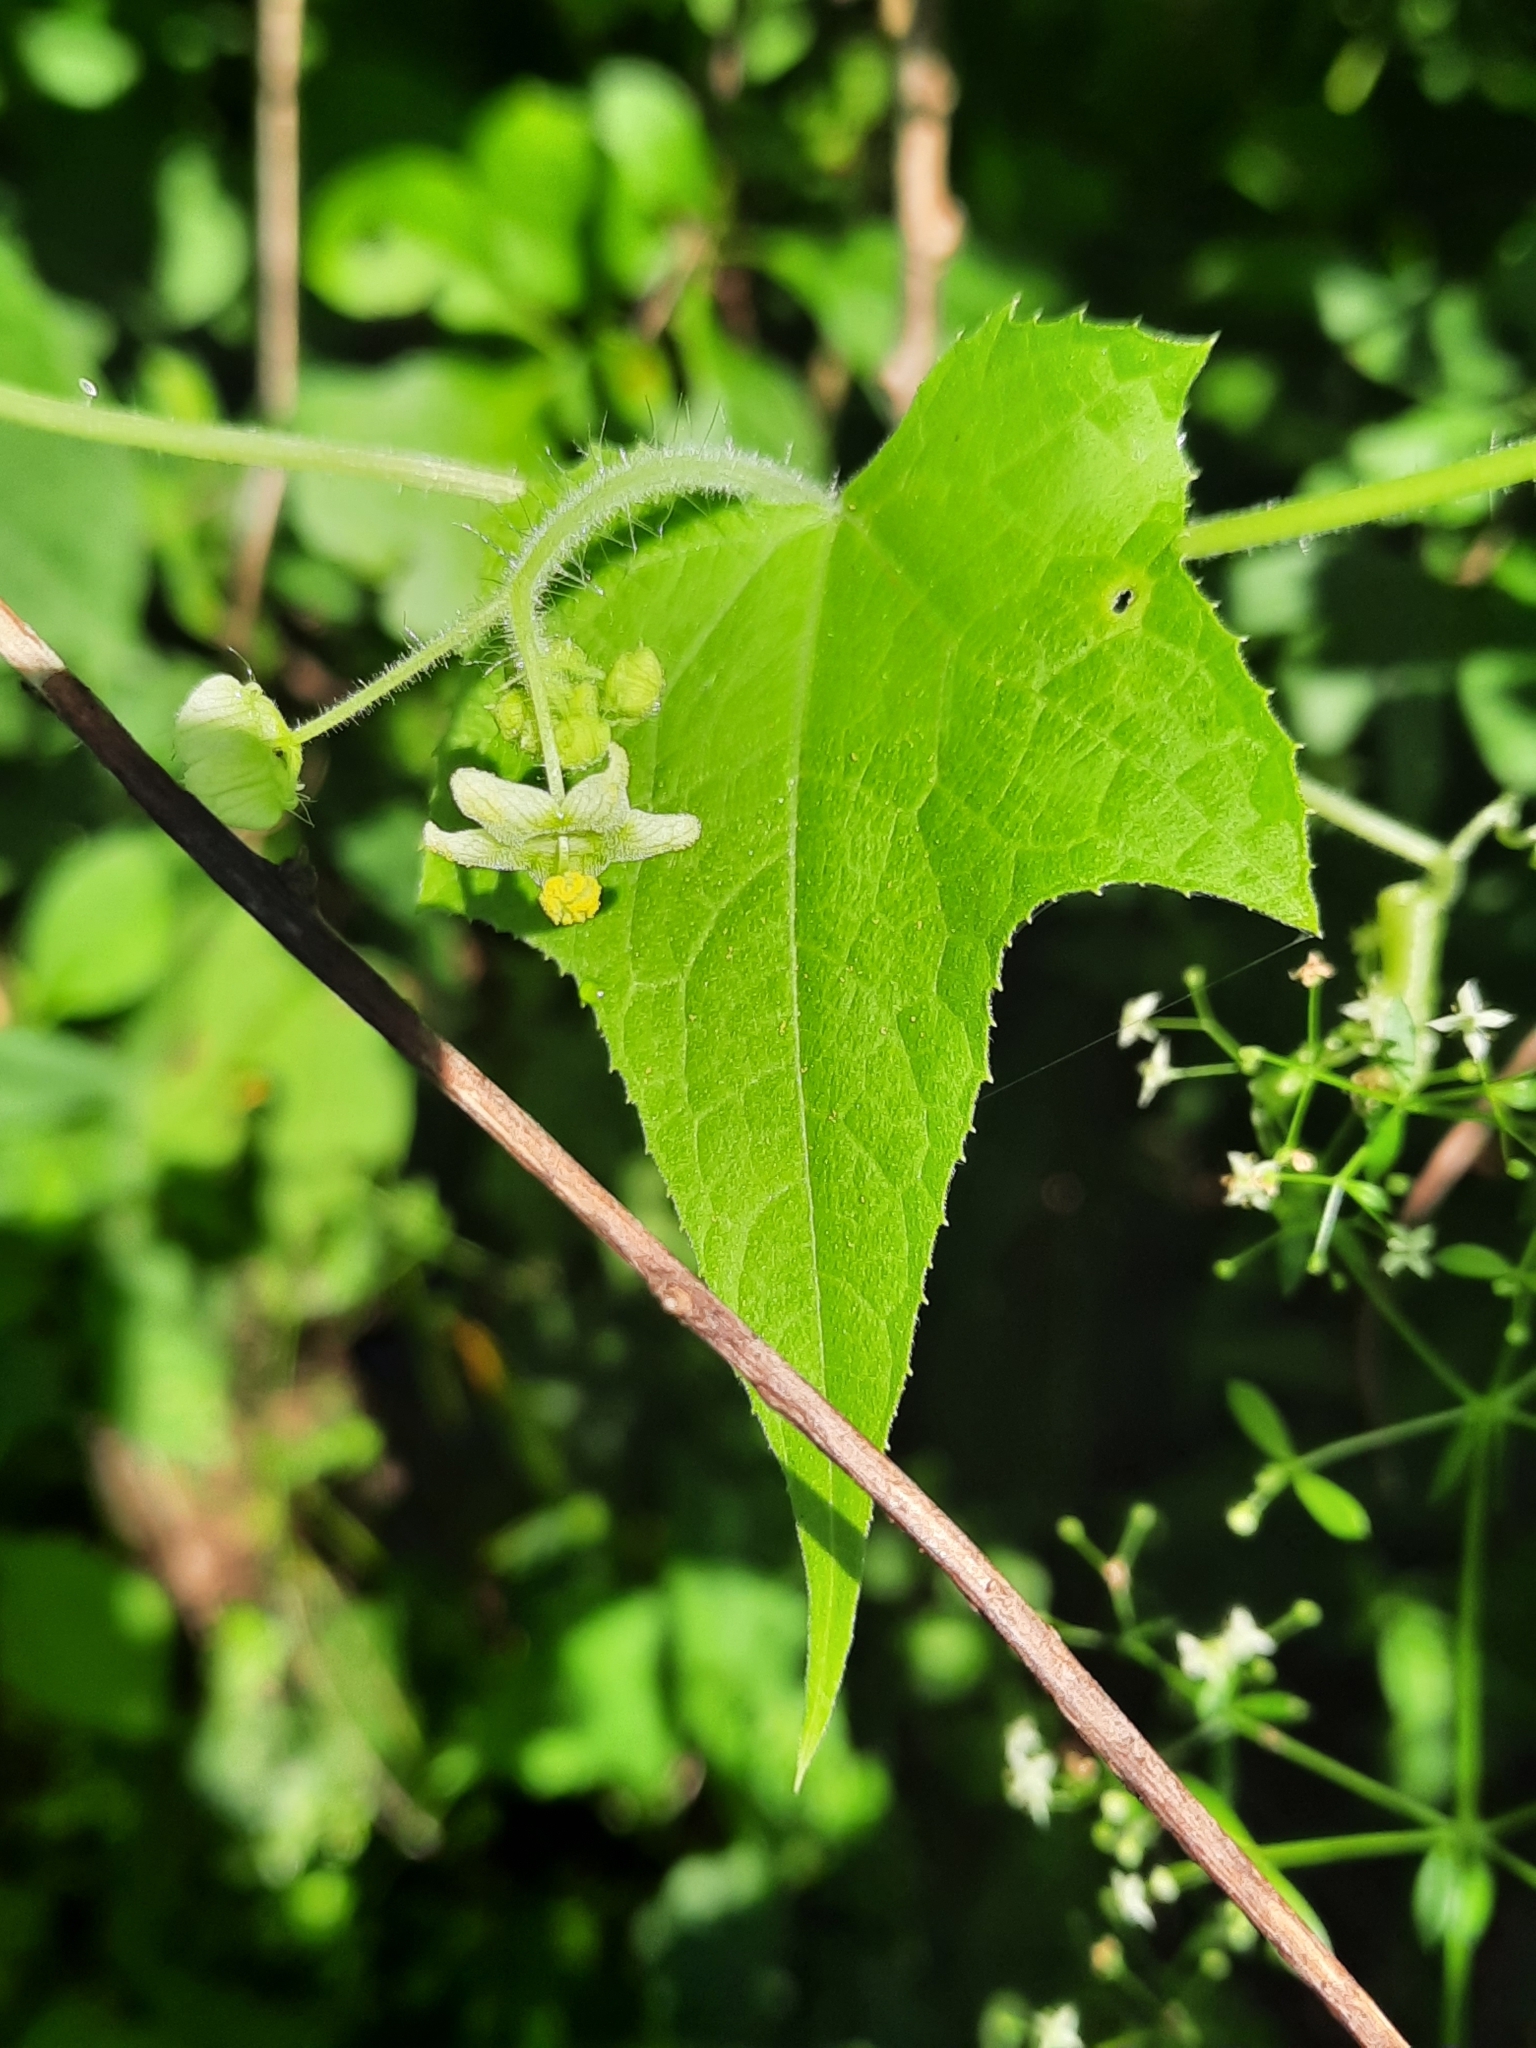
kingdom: Plantae
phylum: Tracheophyta
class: Magnoliopsida
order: Cucurbitales
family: Cucurbitaceae
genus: Sicyos
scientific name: Sicyos angulatus
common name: Angled burr cucumber
